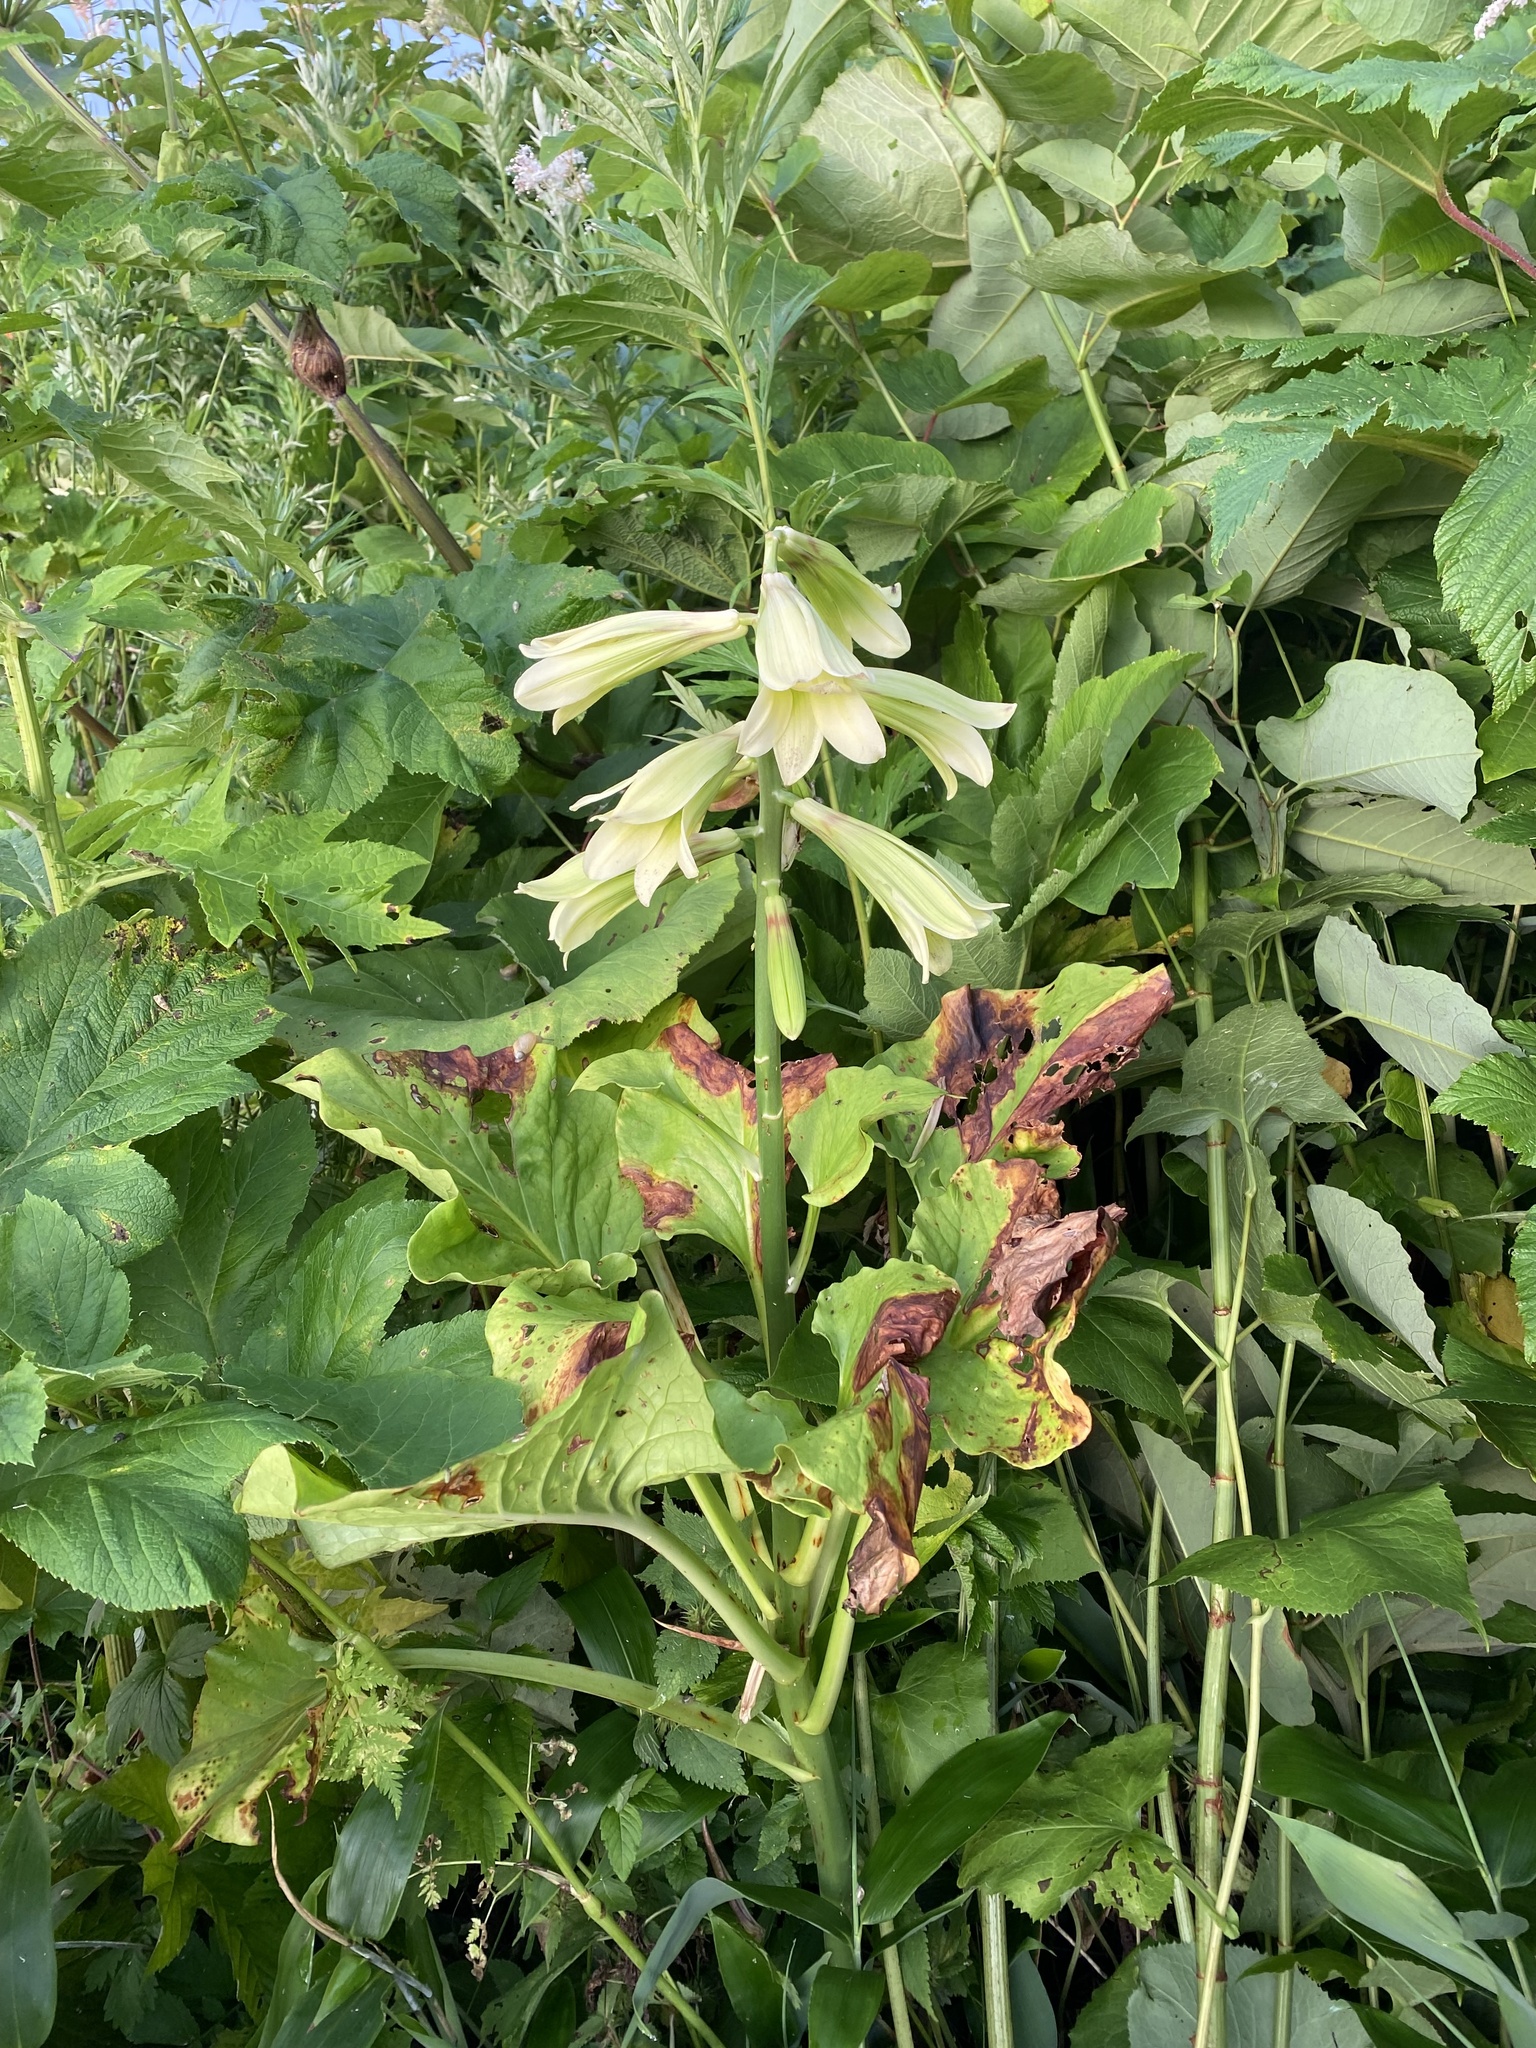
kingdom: Plantae
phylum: Tracheophyta
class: Liliopsida
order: Liliales
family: Liliaceae
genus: Cardiocrinum
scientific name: Cardiocrinum cordatum
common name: Lily
